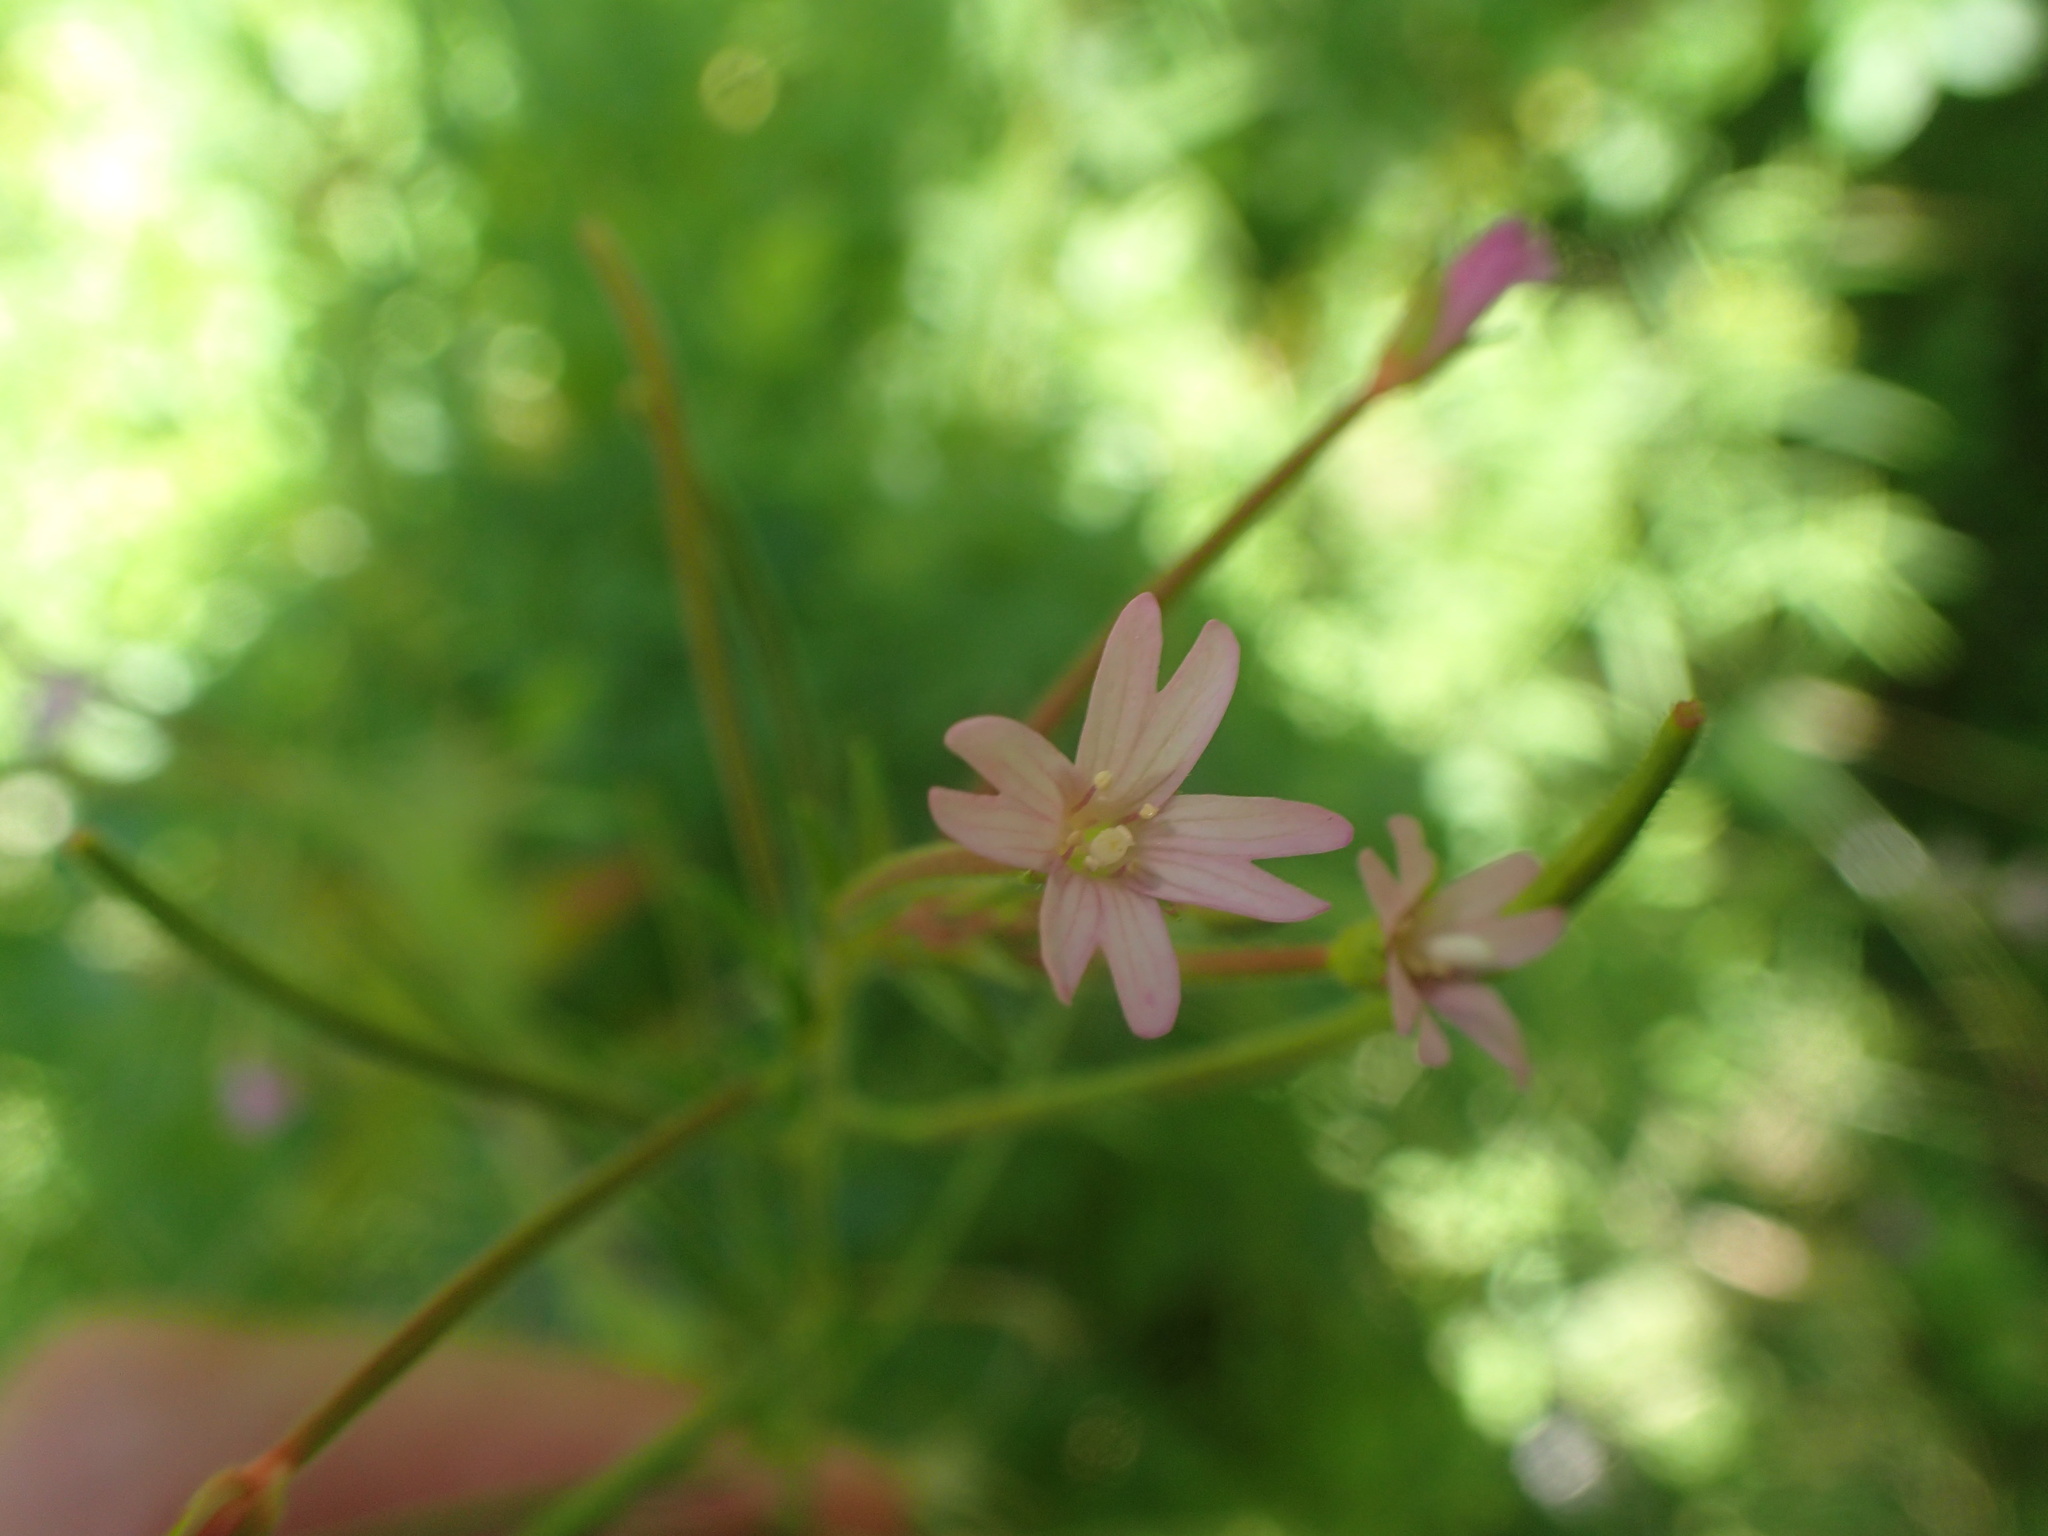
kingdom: Plantae
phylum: Tracheophyta
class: Magnoliopsida
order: Myrtales
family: Onagraceae
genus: Epilobium
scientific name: Epilobium ciliatum
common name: American willowherb
